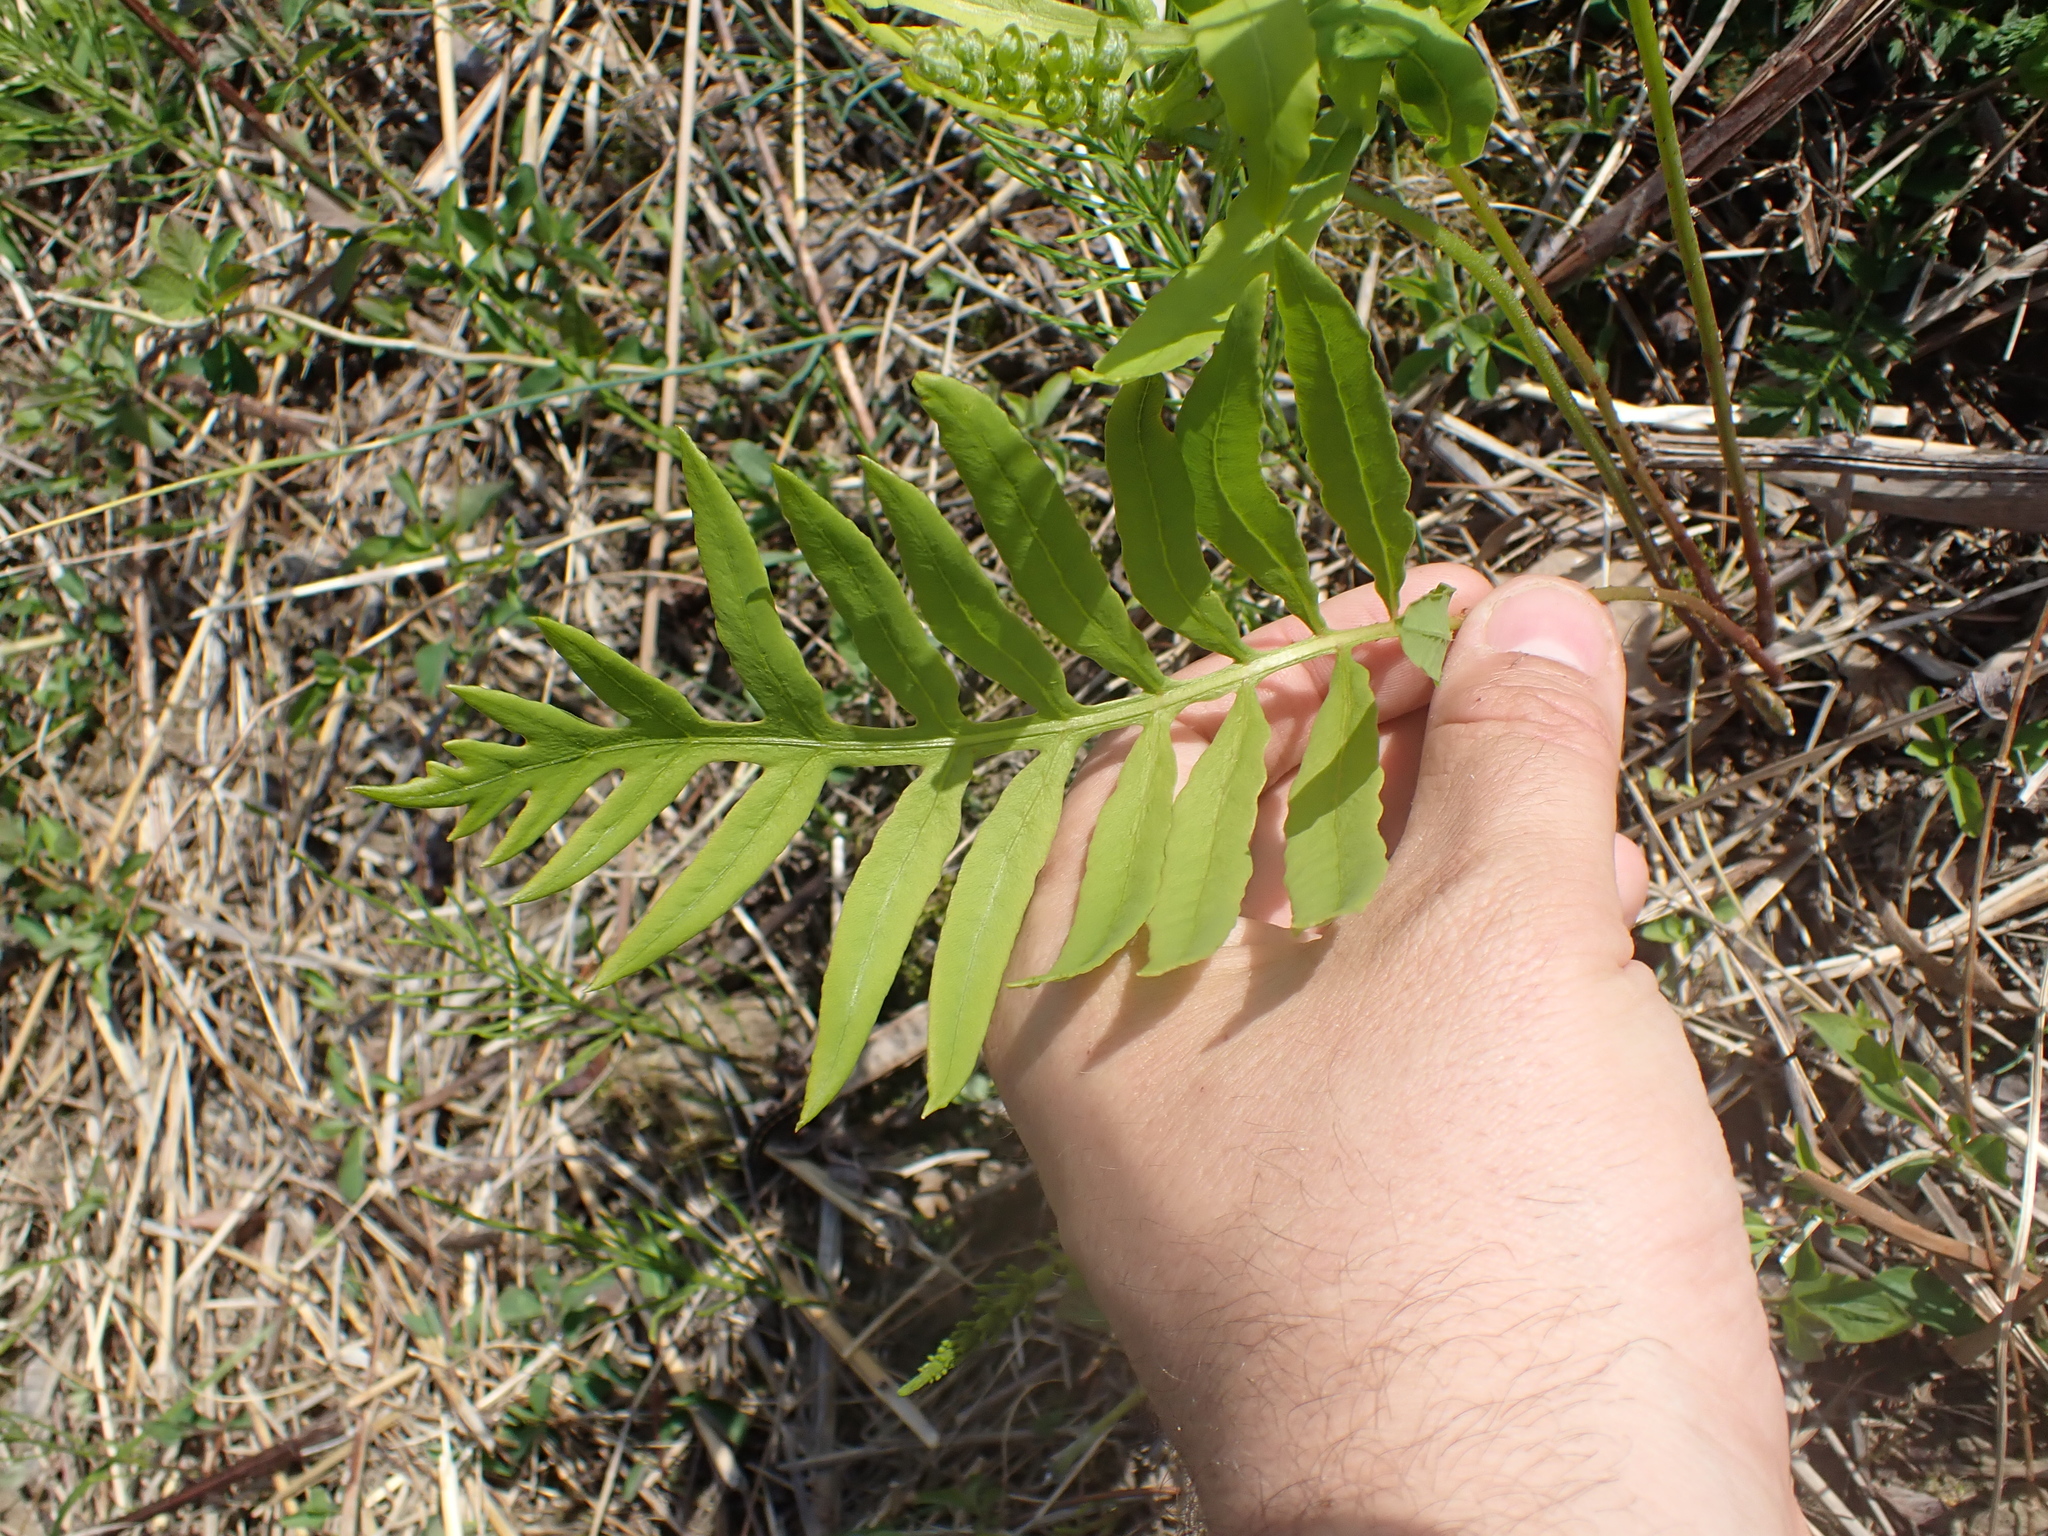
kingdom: Plantae
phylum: Tracheophyta
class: Polypodiopsida
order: Polypodiales
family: Onocleaceae
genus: Onoclea
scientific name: Onoclea sensibilis
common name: Sensitive fern
